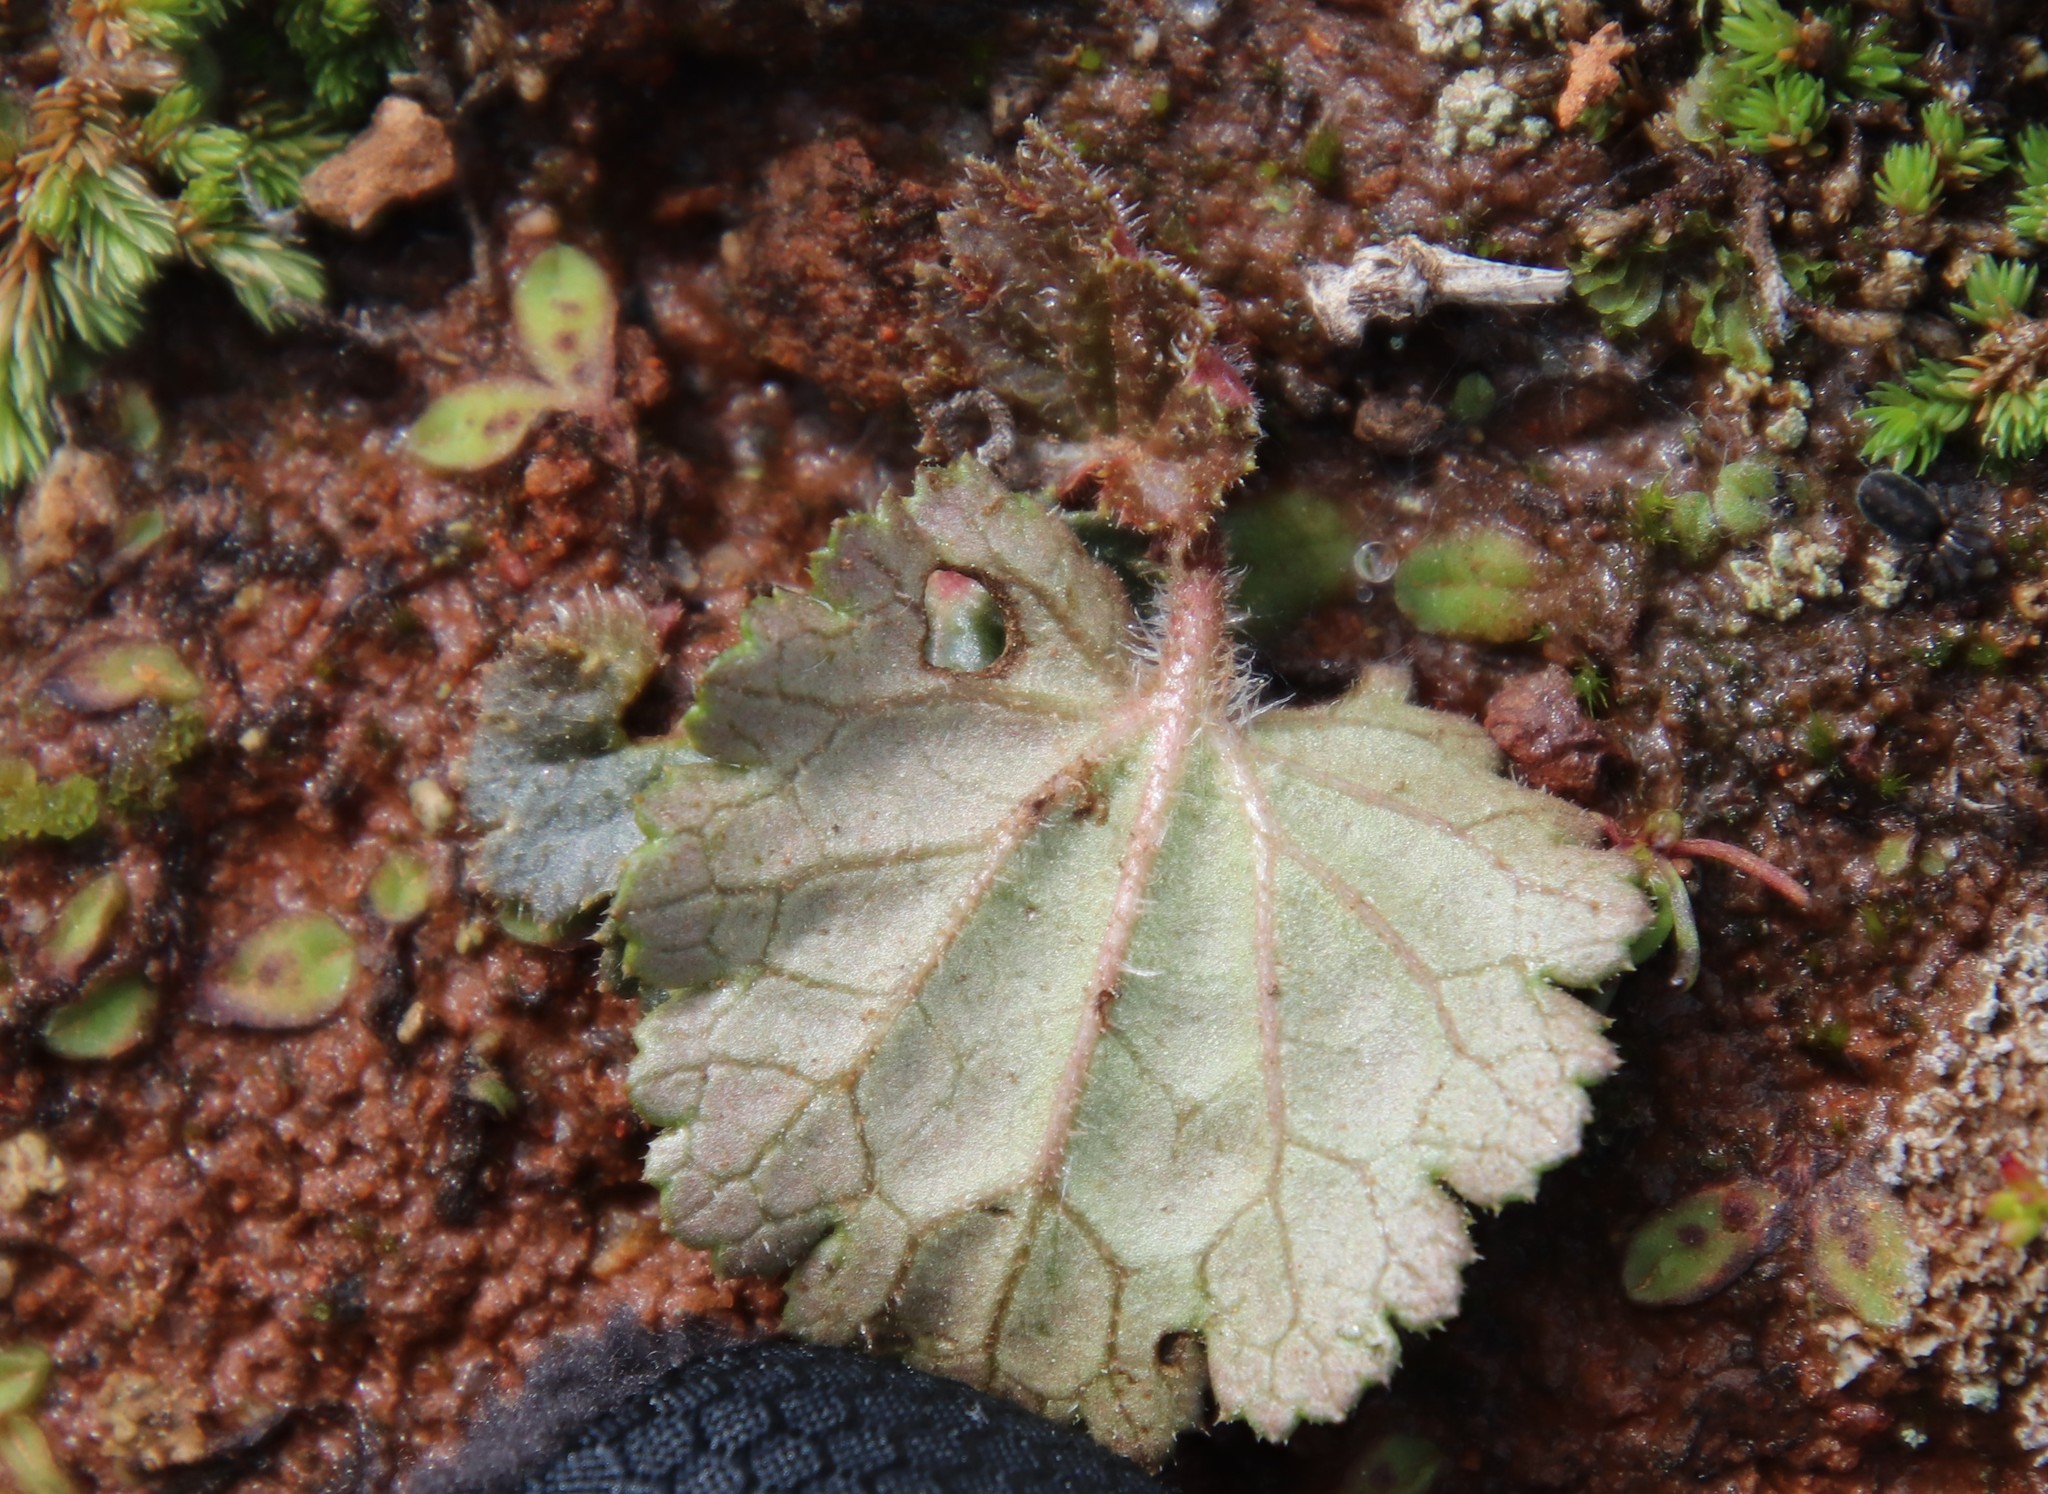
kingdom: Plantae
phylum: Tracheophyta
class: Magnoliopsida
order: Saxifragales
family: Saxifragaceae
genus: Jepsonia
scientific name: Jepsonia parryi
